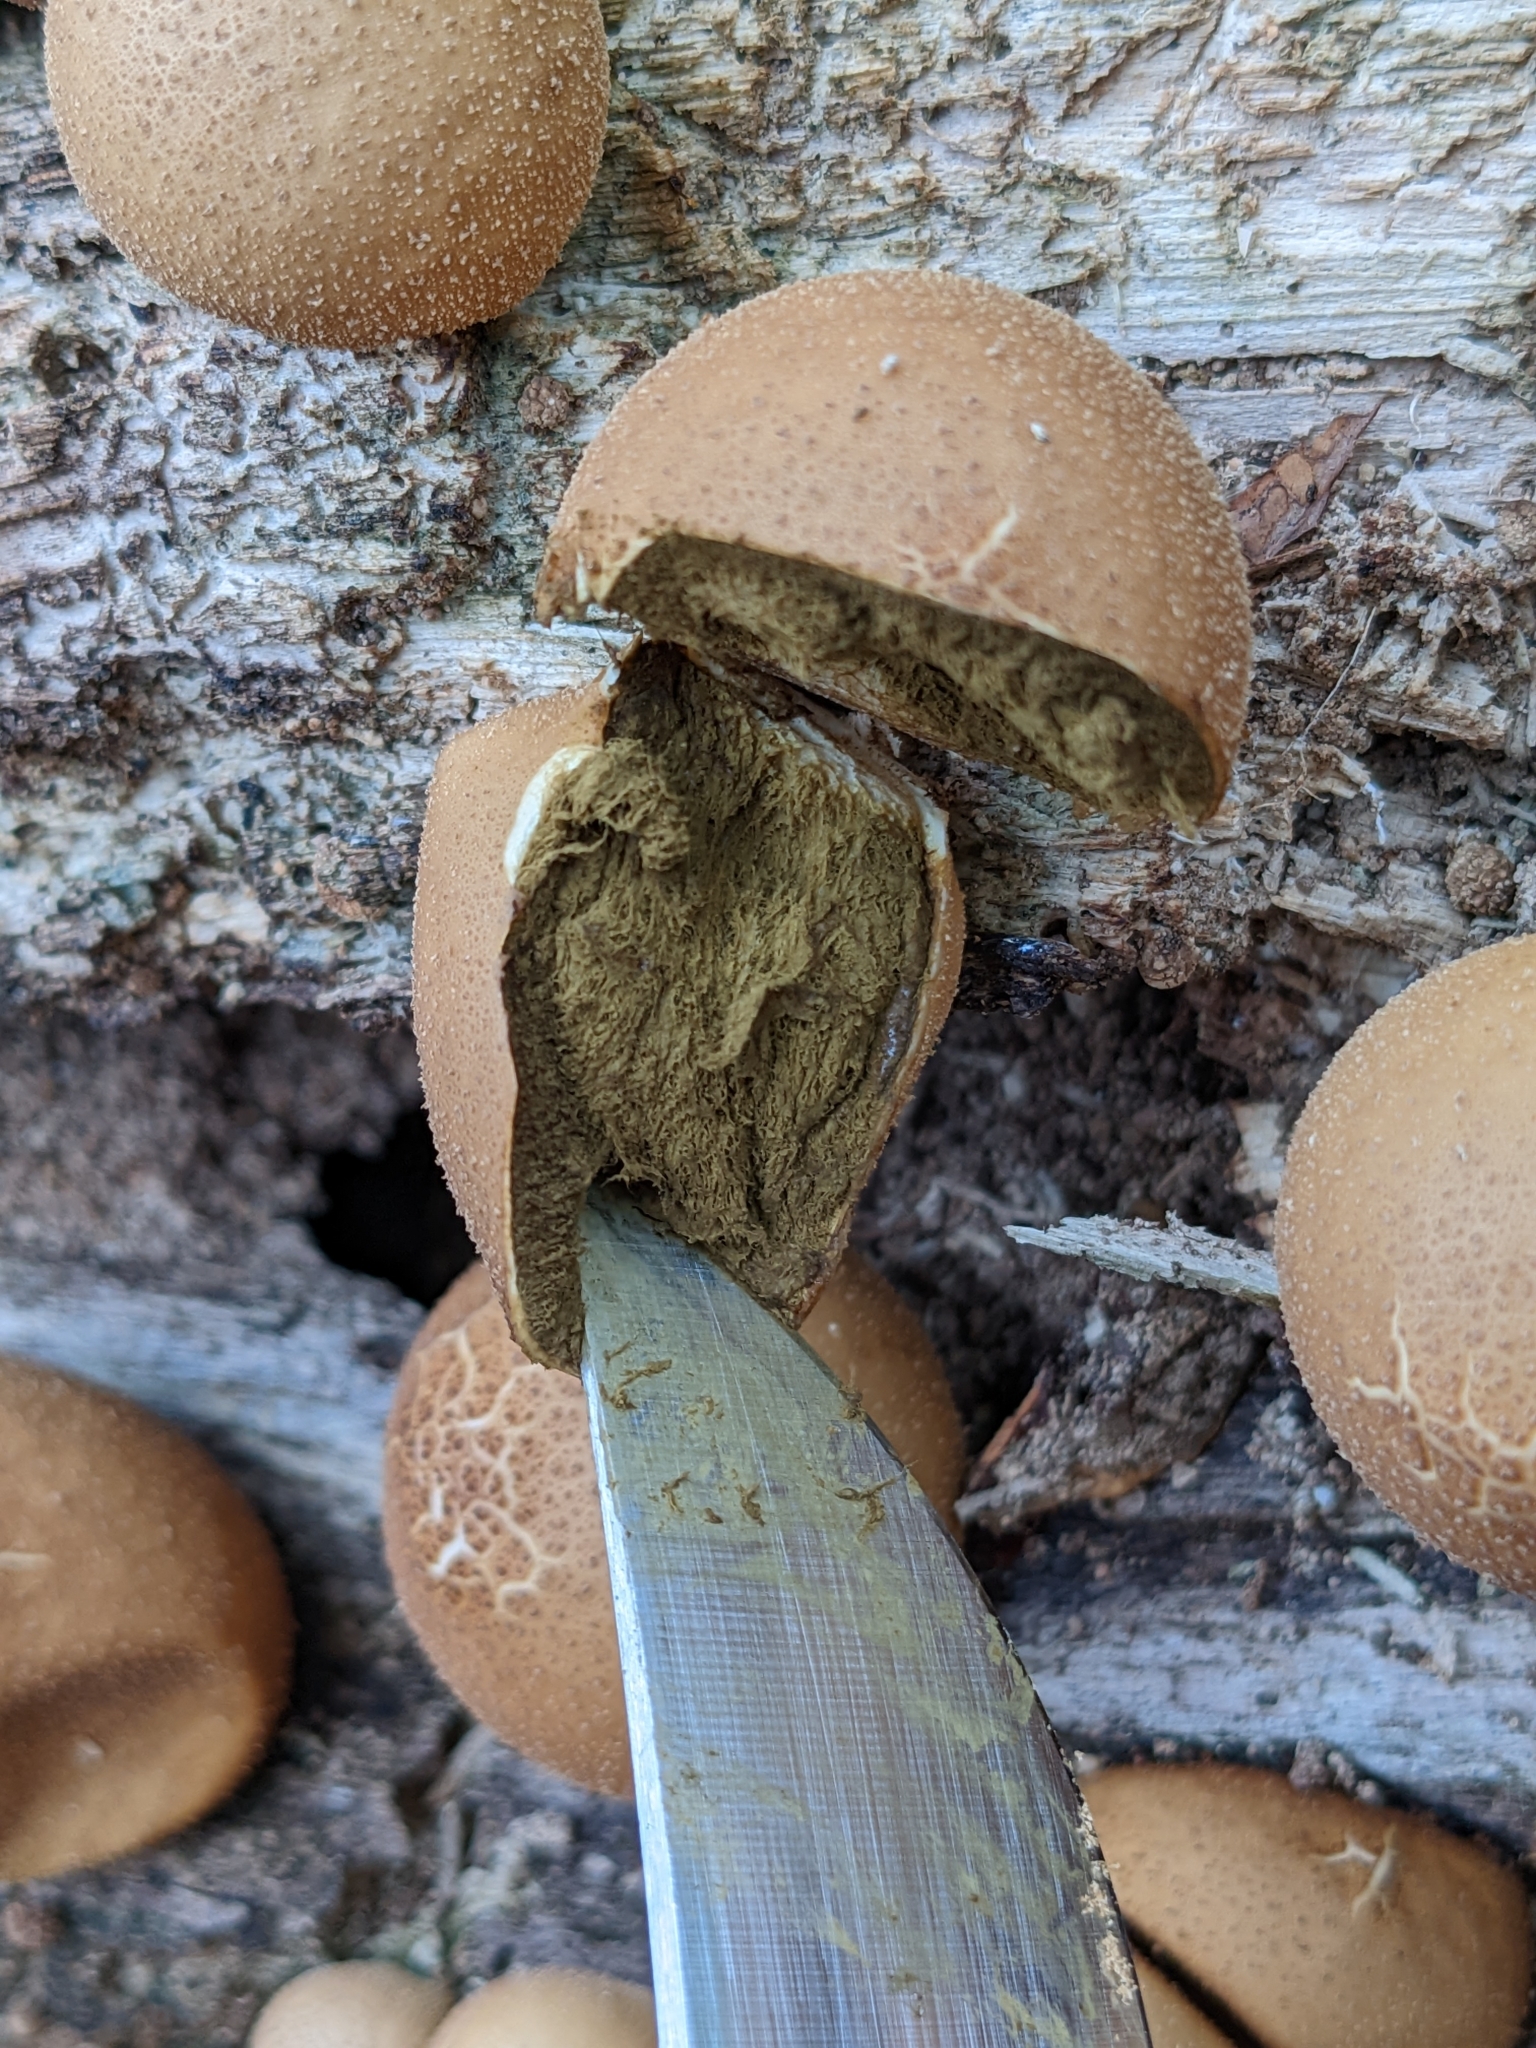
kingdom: Fungi
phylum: Basidiomycota
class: Agaricomycetes
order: Agaricales
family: Lycoperdaceae
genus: Apioperdon
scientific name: Apioperdon pyriforme
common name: Pear-shaped puffball
